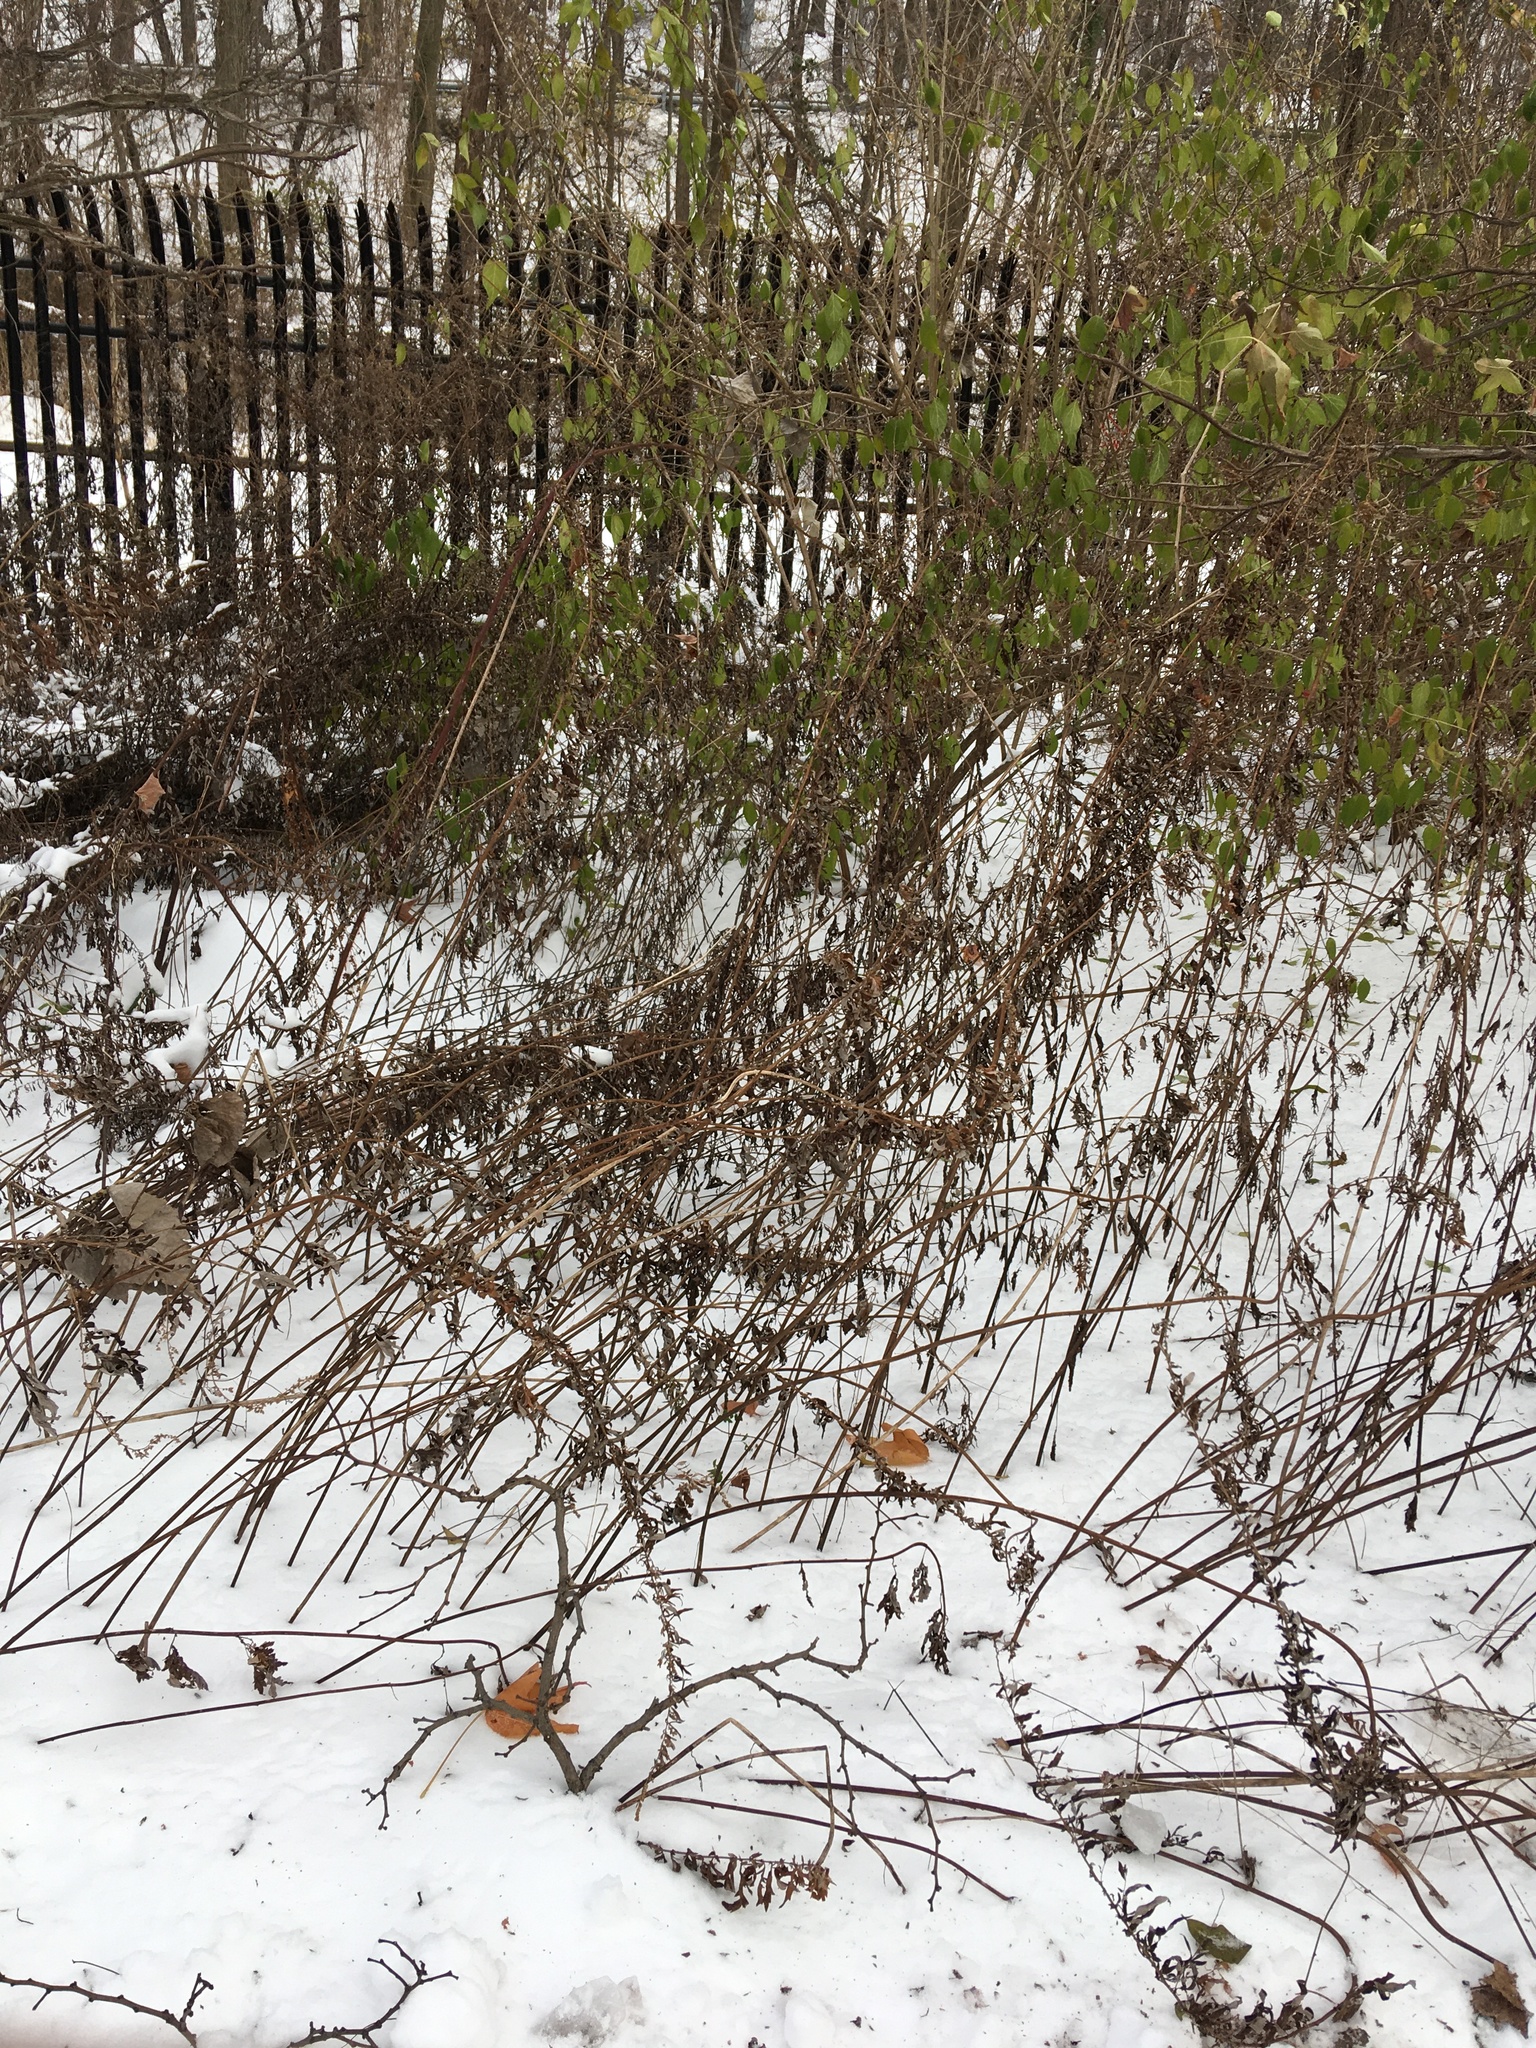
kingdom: Plantae
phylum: Tracheophyta
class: Magnoliopsida
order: Asterales
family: Asteraceae
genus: Artemisia
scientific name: Artemisia vulgaris
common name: Mugwort
